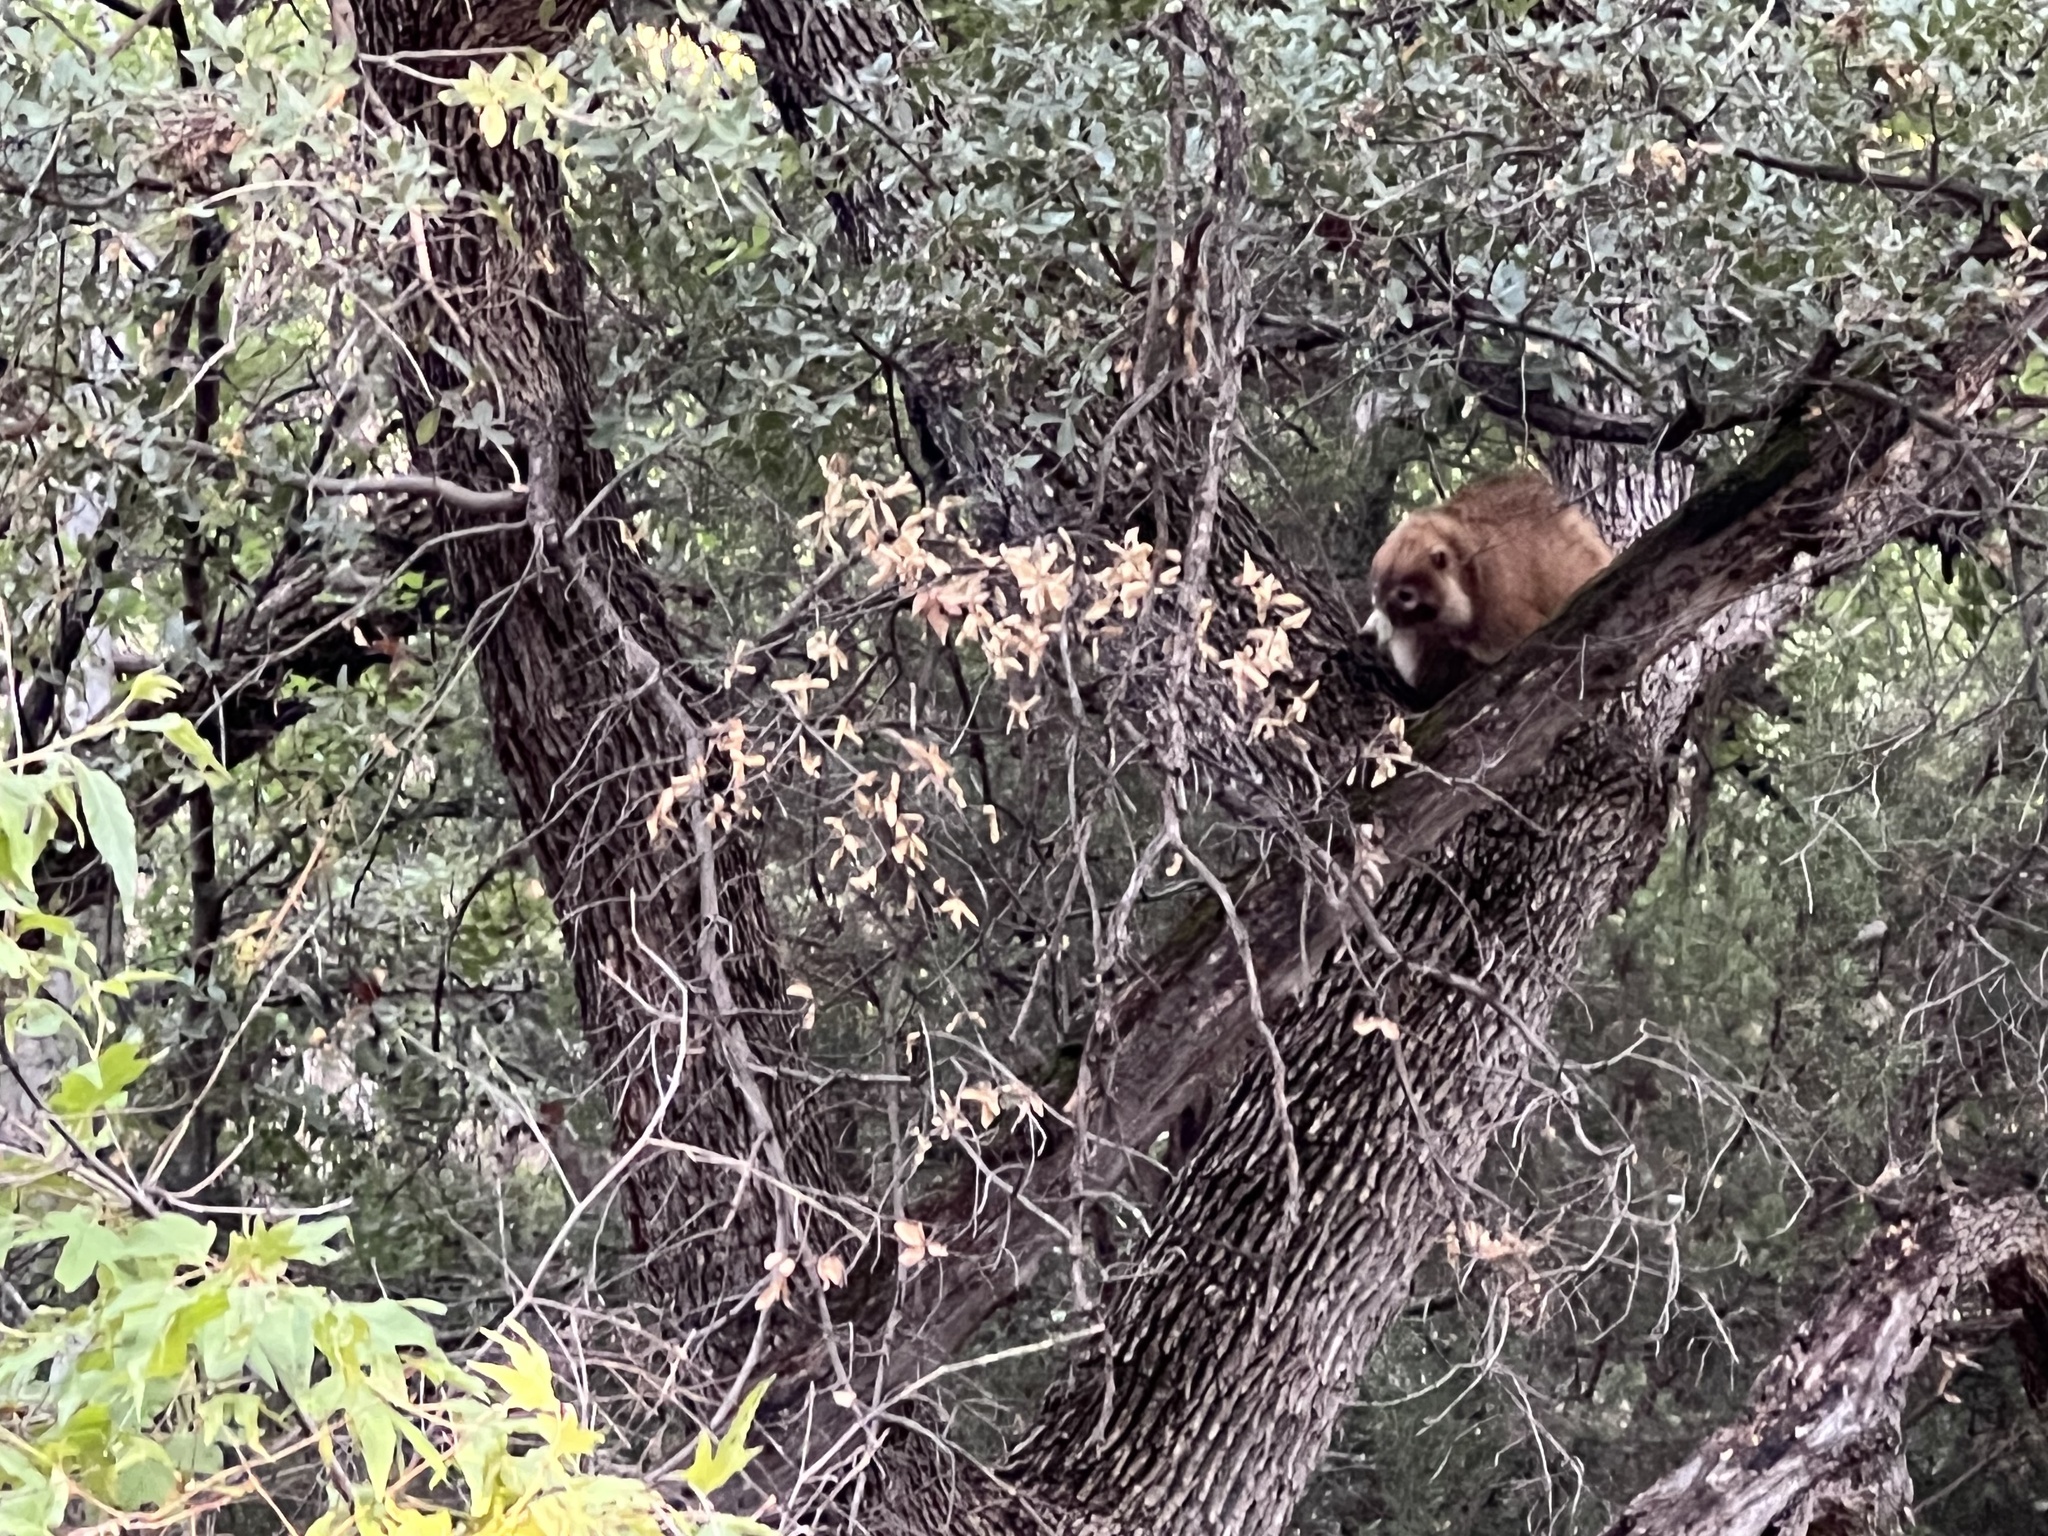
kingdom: Animalia
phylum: Chordata
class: Mammalia
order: Carnivora
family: Procyonidae
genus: Nasua
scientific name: Nasua narica
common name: White-nosed coati
